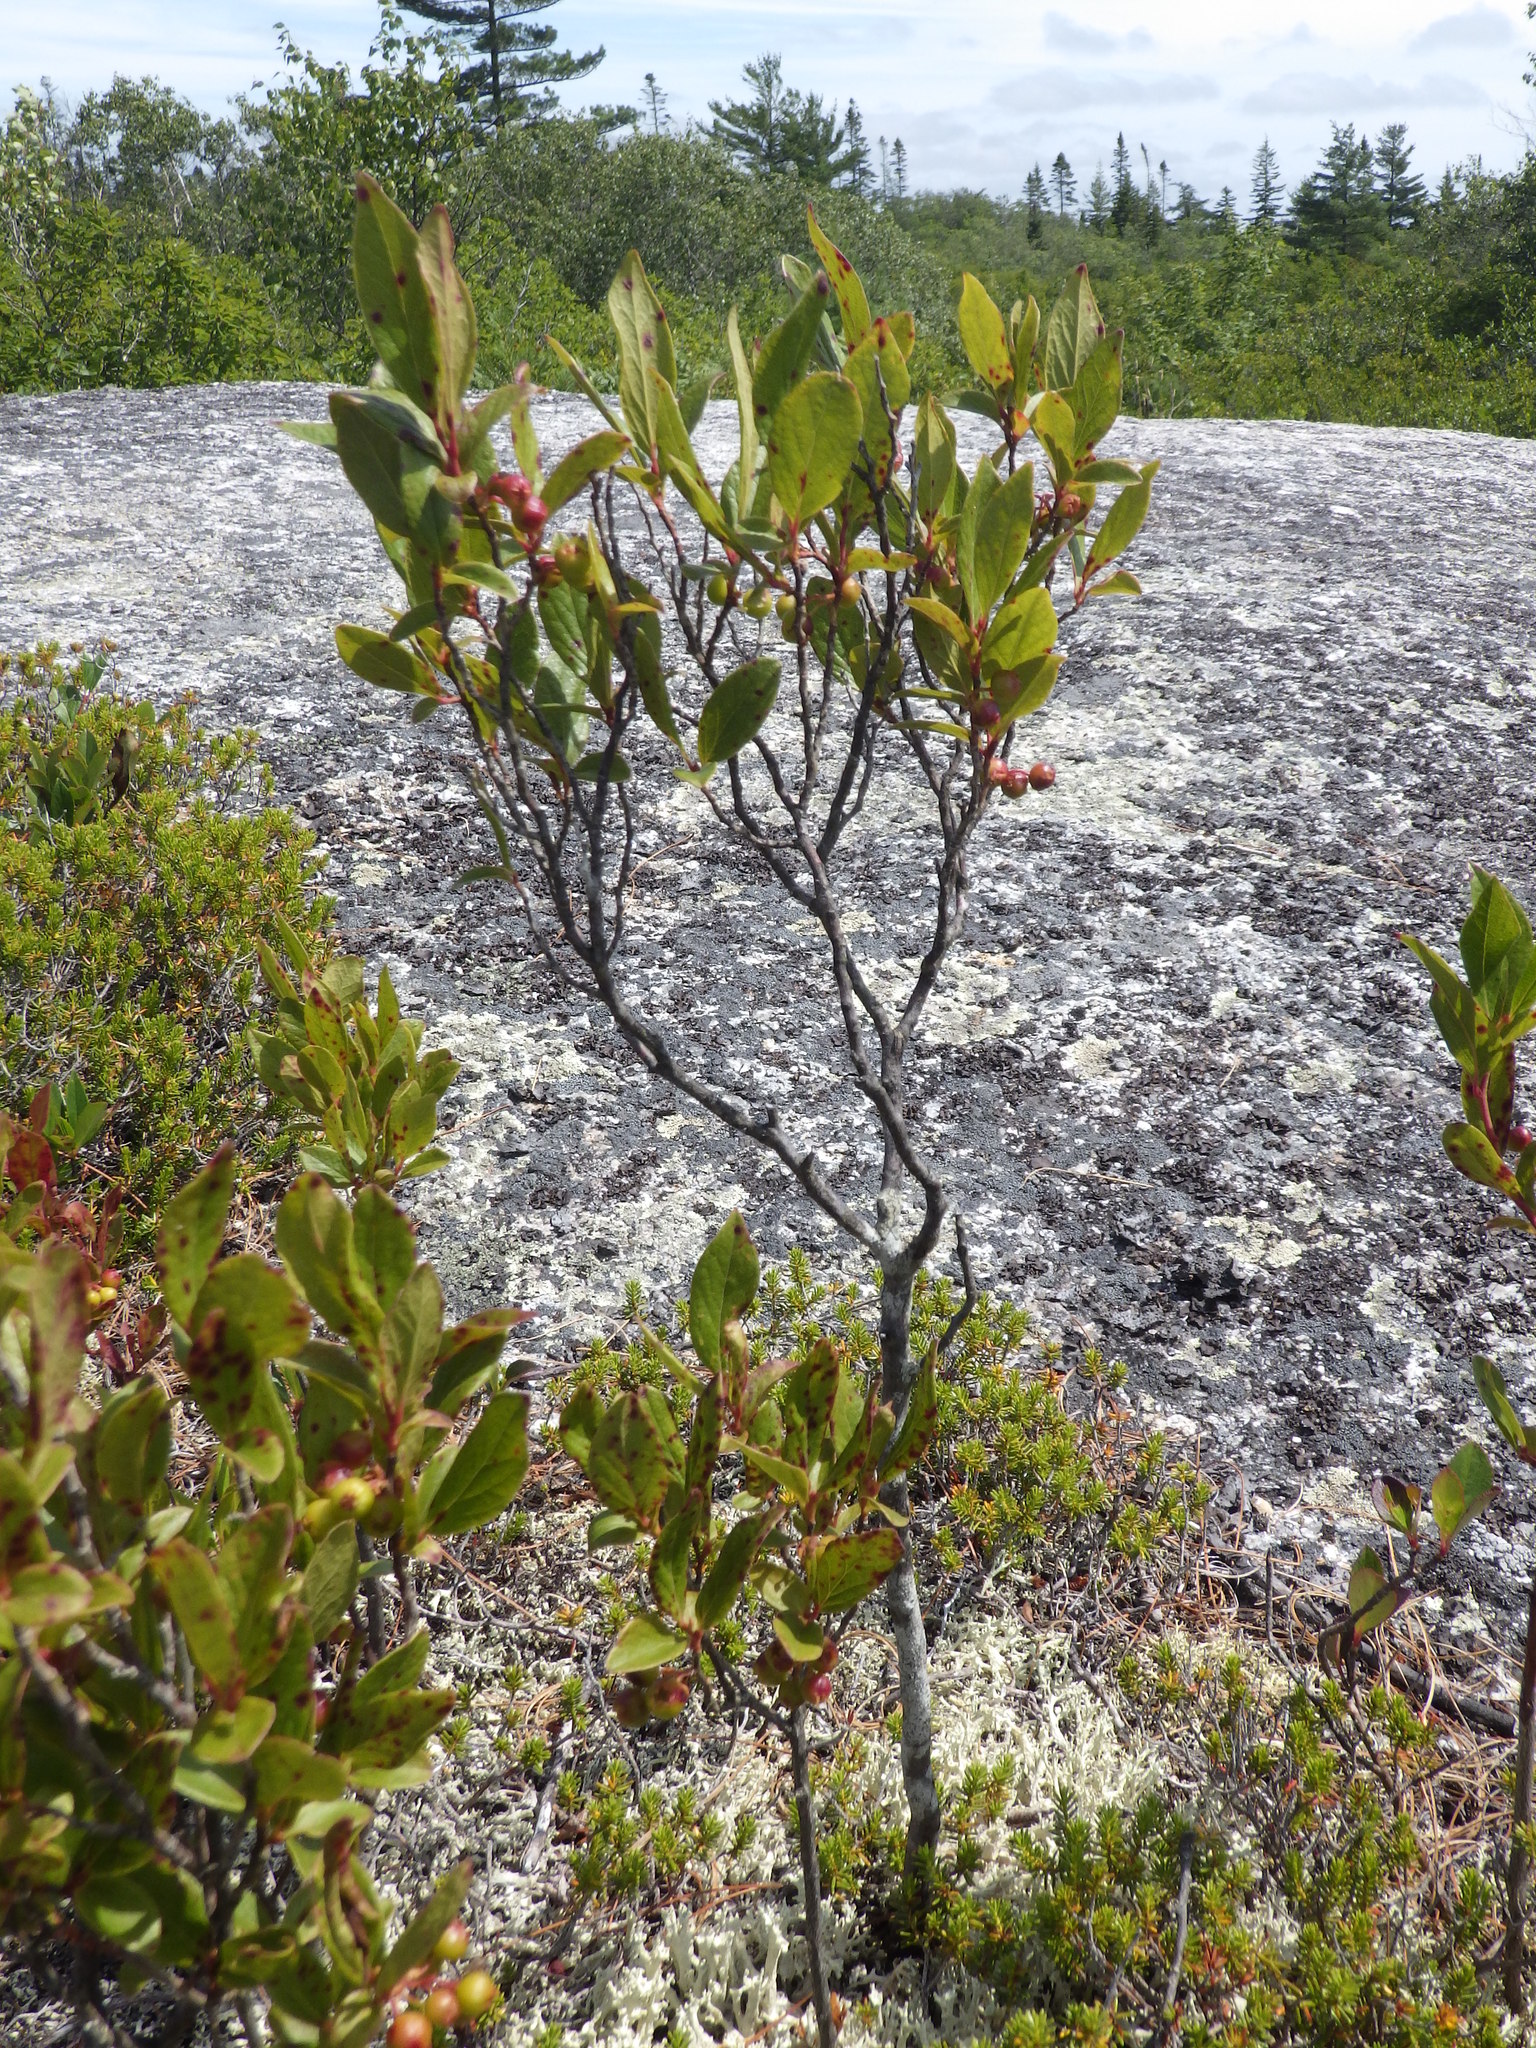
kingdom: Plantae
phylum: Tracheophyta
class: Magnoliopsida
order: Ericales
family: Ericaceae
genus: Gaylussacia
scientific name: Gaylussacia baccata
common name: Black huckleberry
